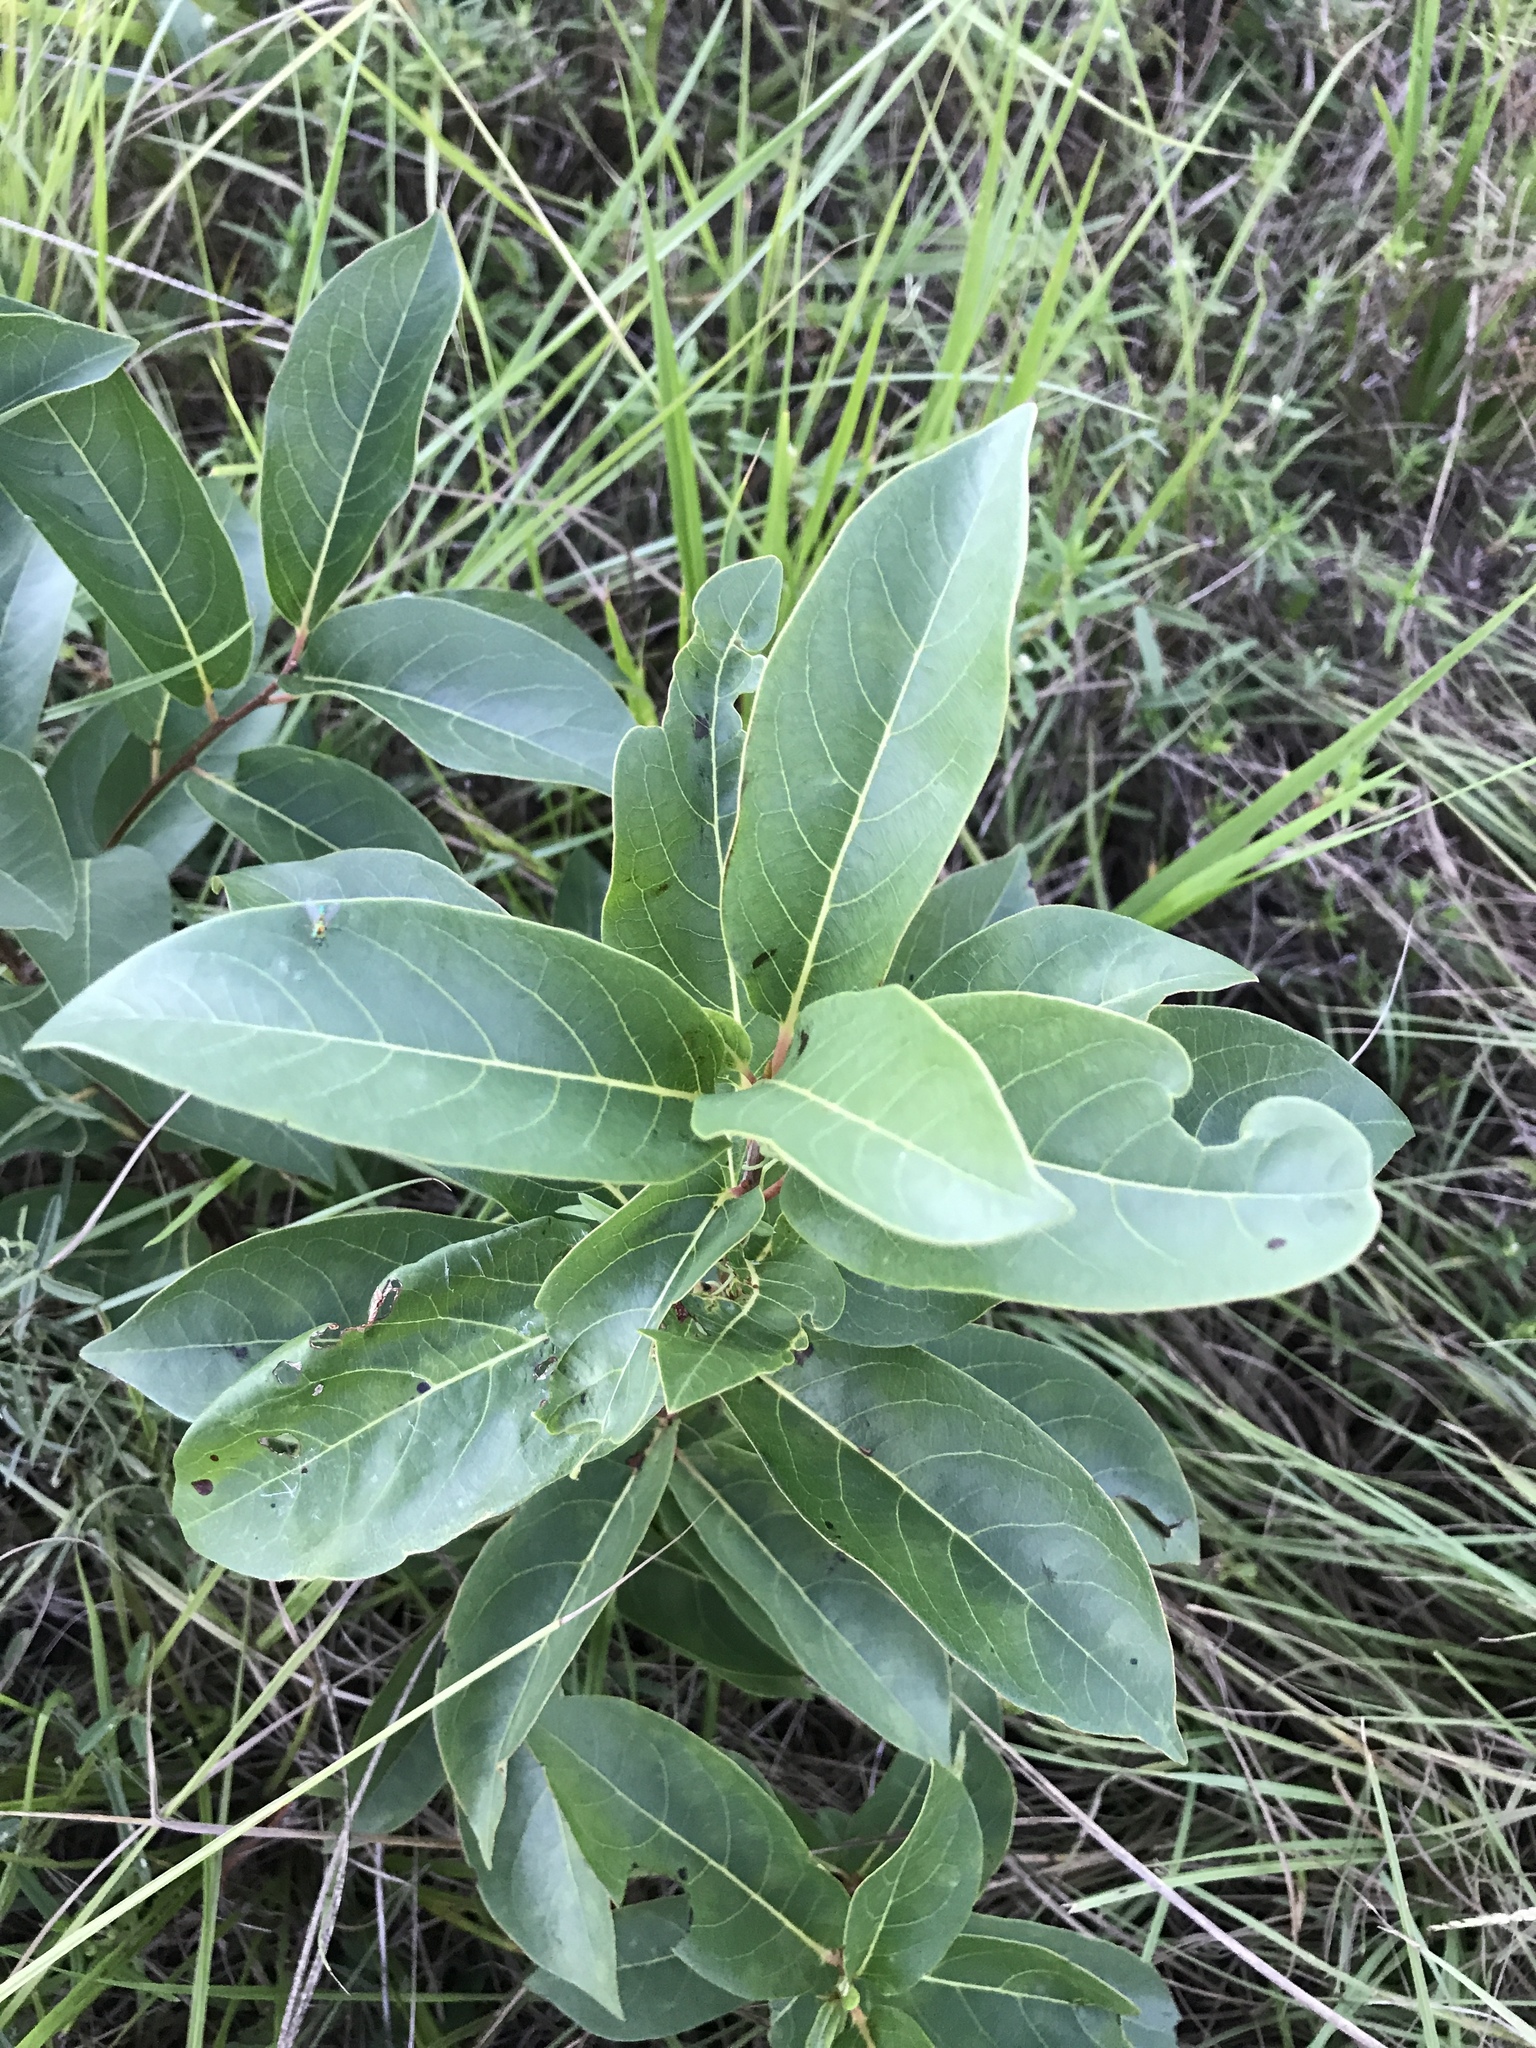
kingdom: Plantae
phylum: Tracheophyta
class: Magnoliopsida
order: Ericales
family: Ebenaceae
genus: Diospyros
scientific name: Diospyros virginiana
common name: Persimmon
